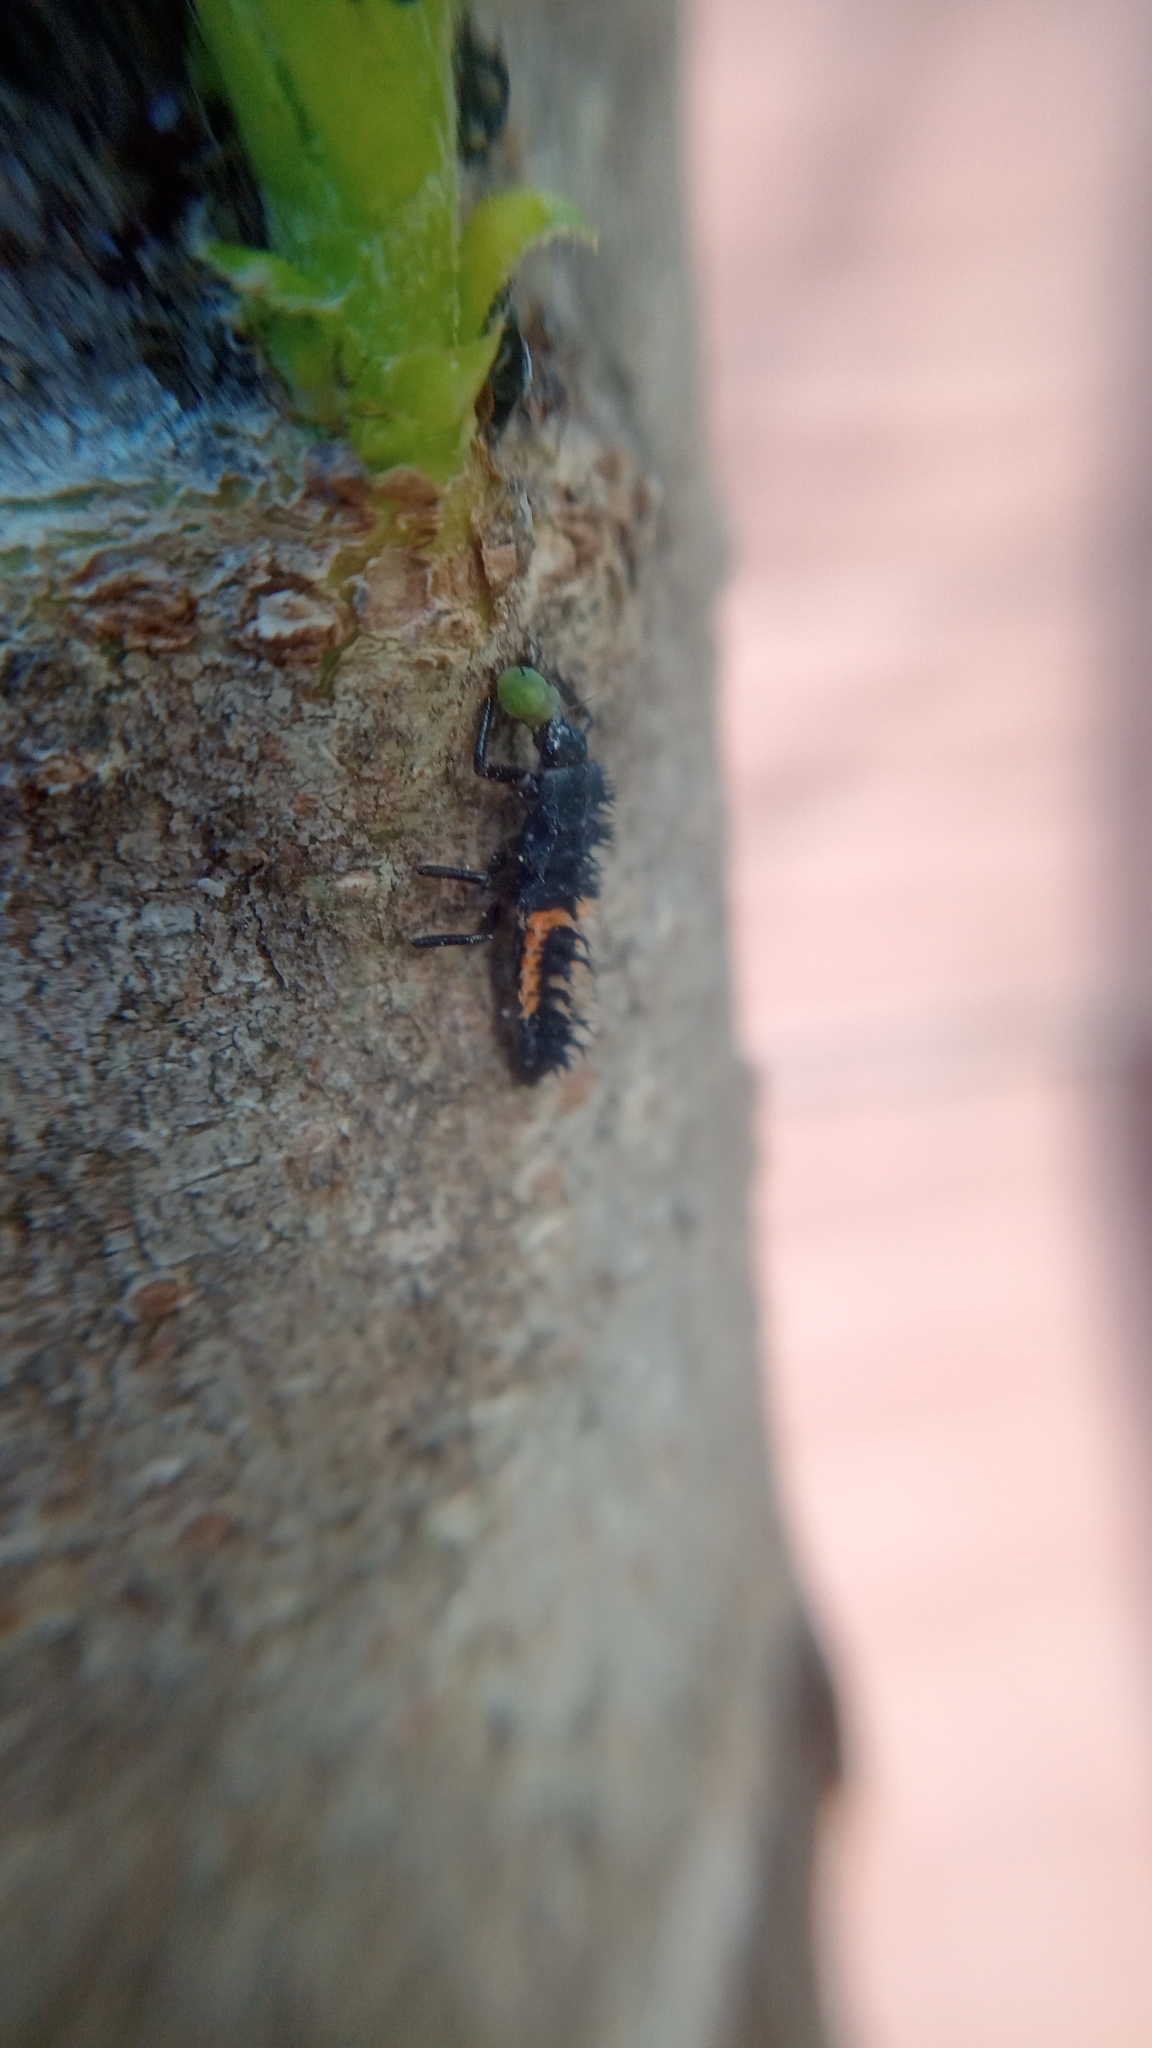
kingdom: Animalia
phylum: Arthropoda
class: Insecta
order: Coleoptera
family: Coccinellidae
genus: Harmonia
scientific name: Harmonia axyridis
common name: Harlequin ladybird
